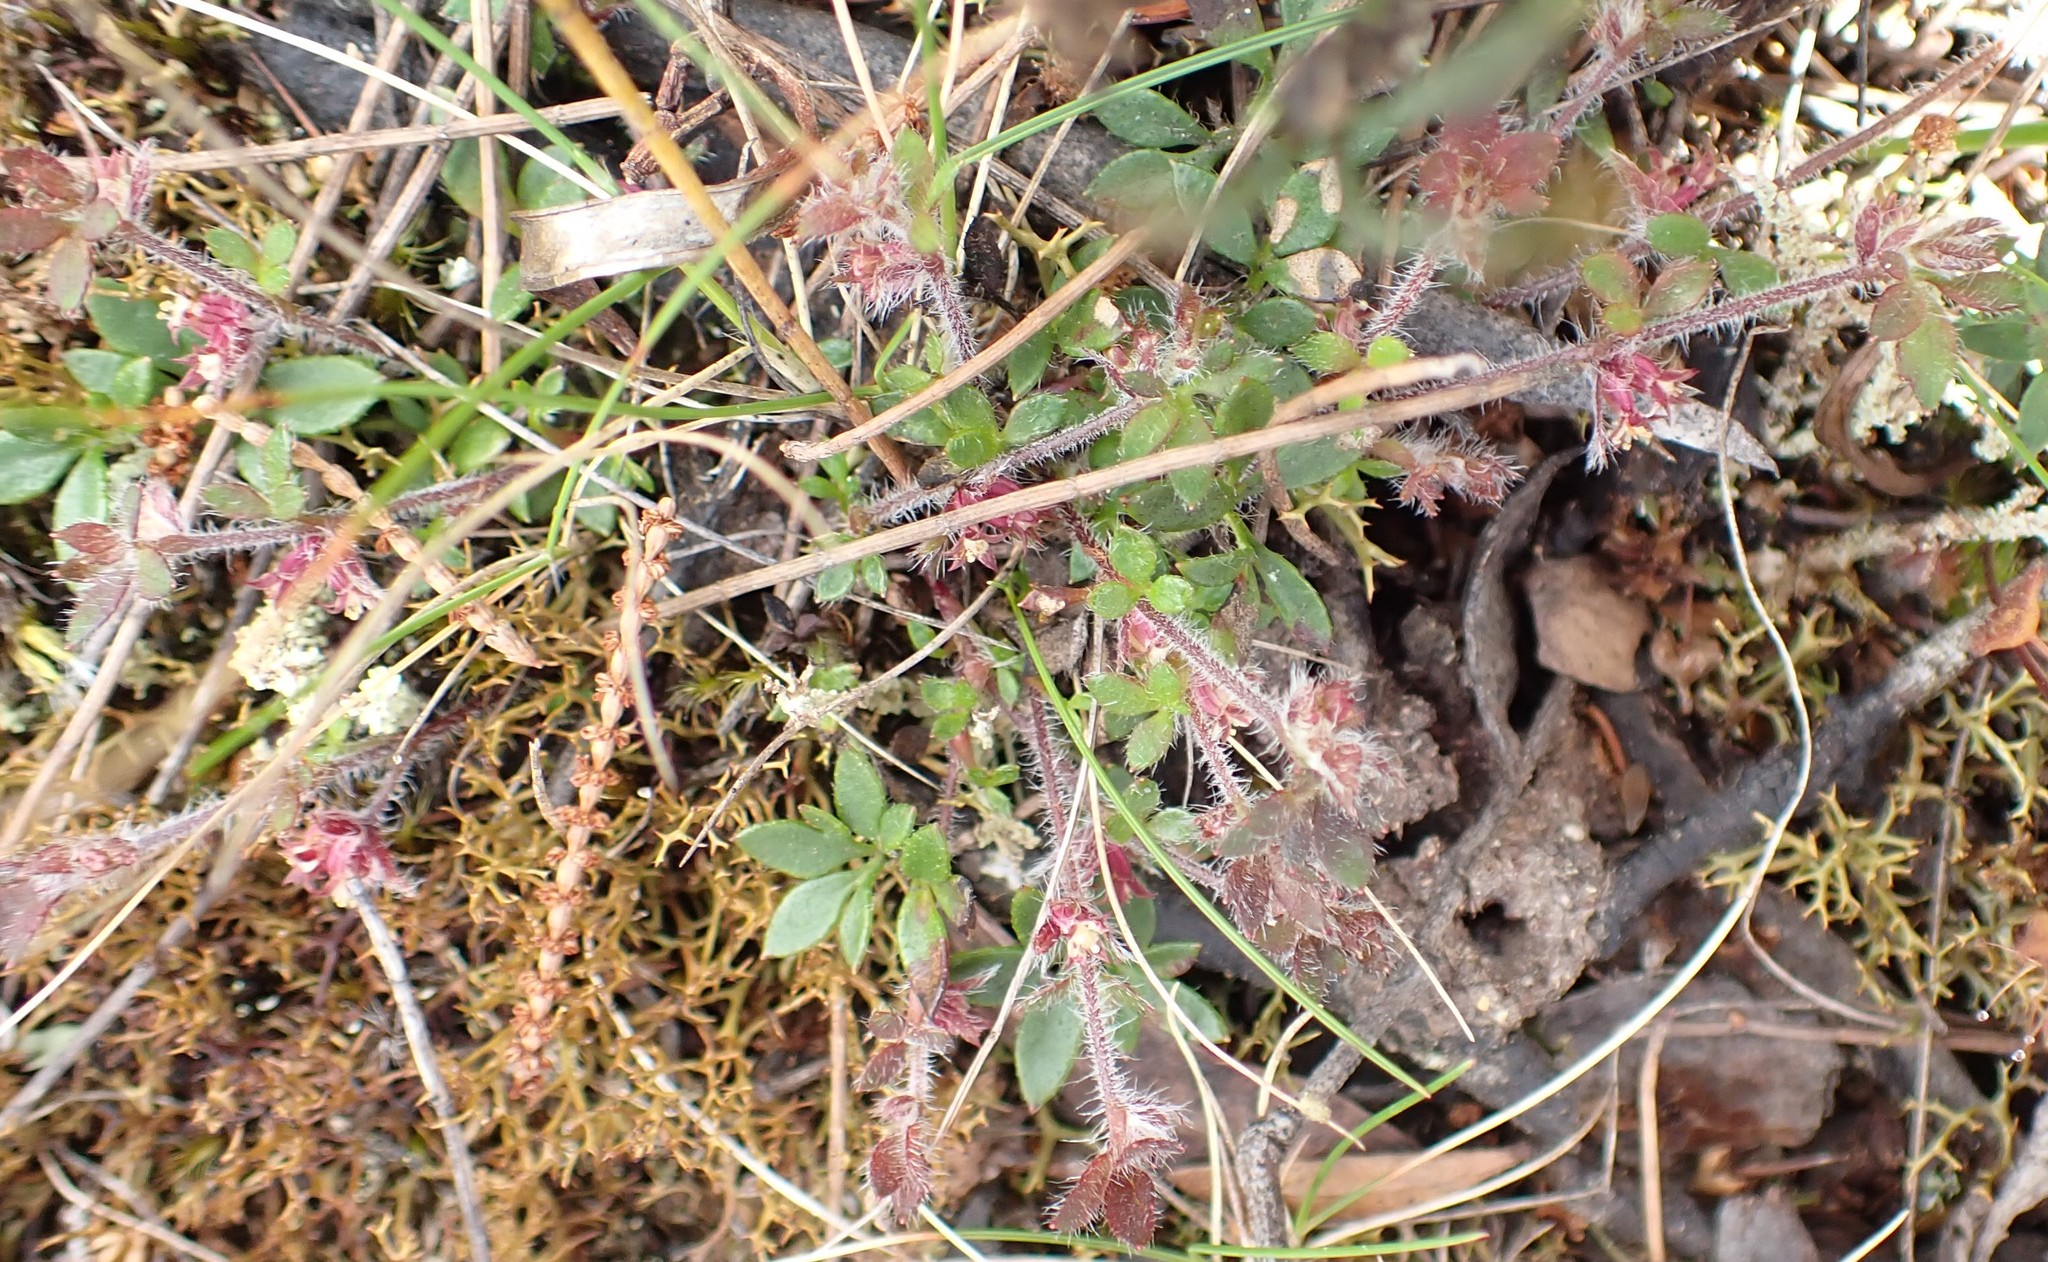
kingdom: Plantae
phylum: Tracheophyta
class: Magnoliopsida
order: Apiales
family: Apiaceae
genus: Xanthosia
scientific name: Xanthosia tasmanica
